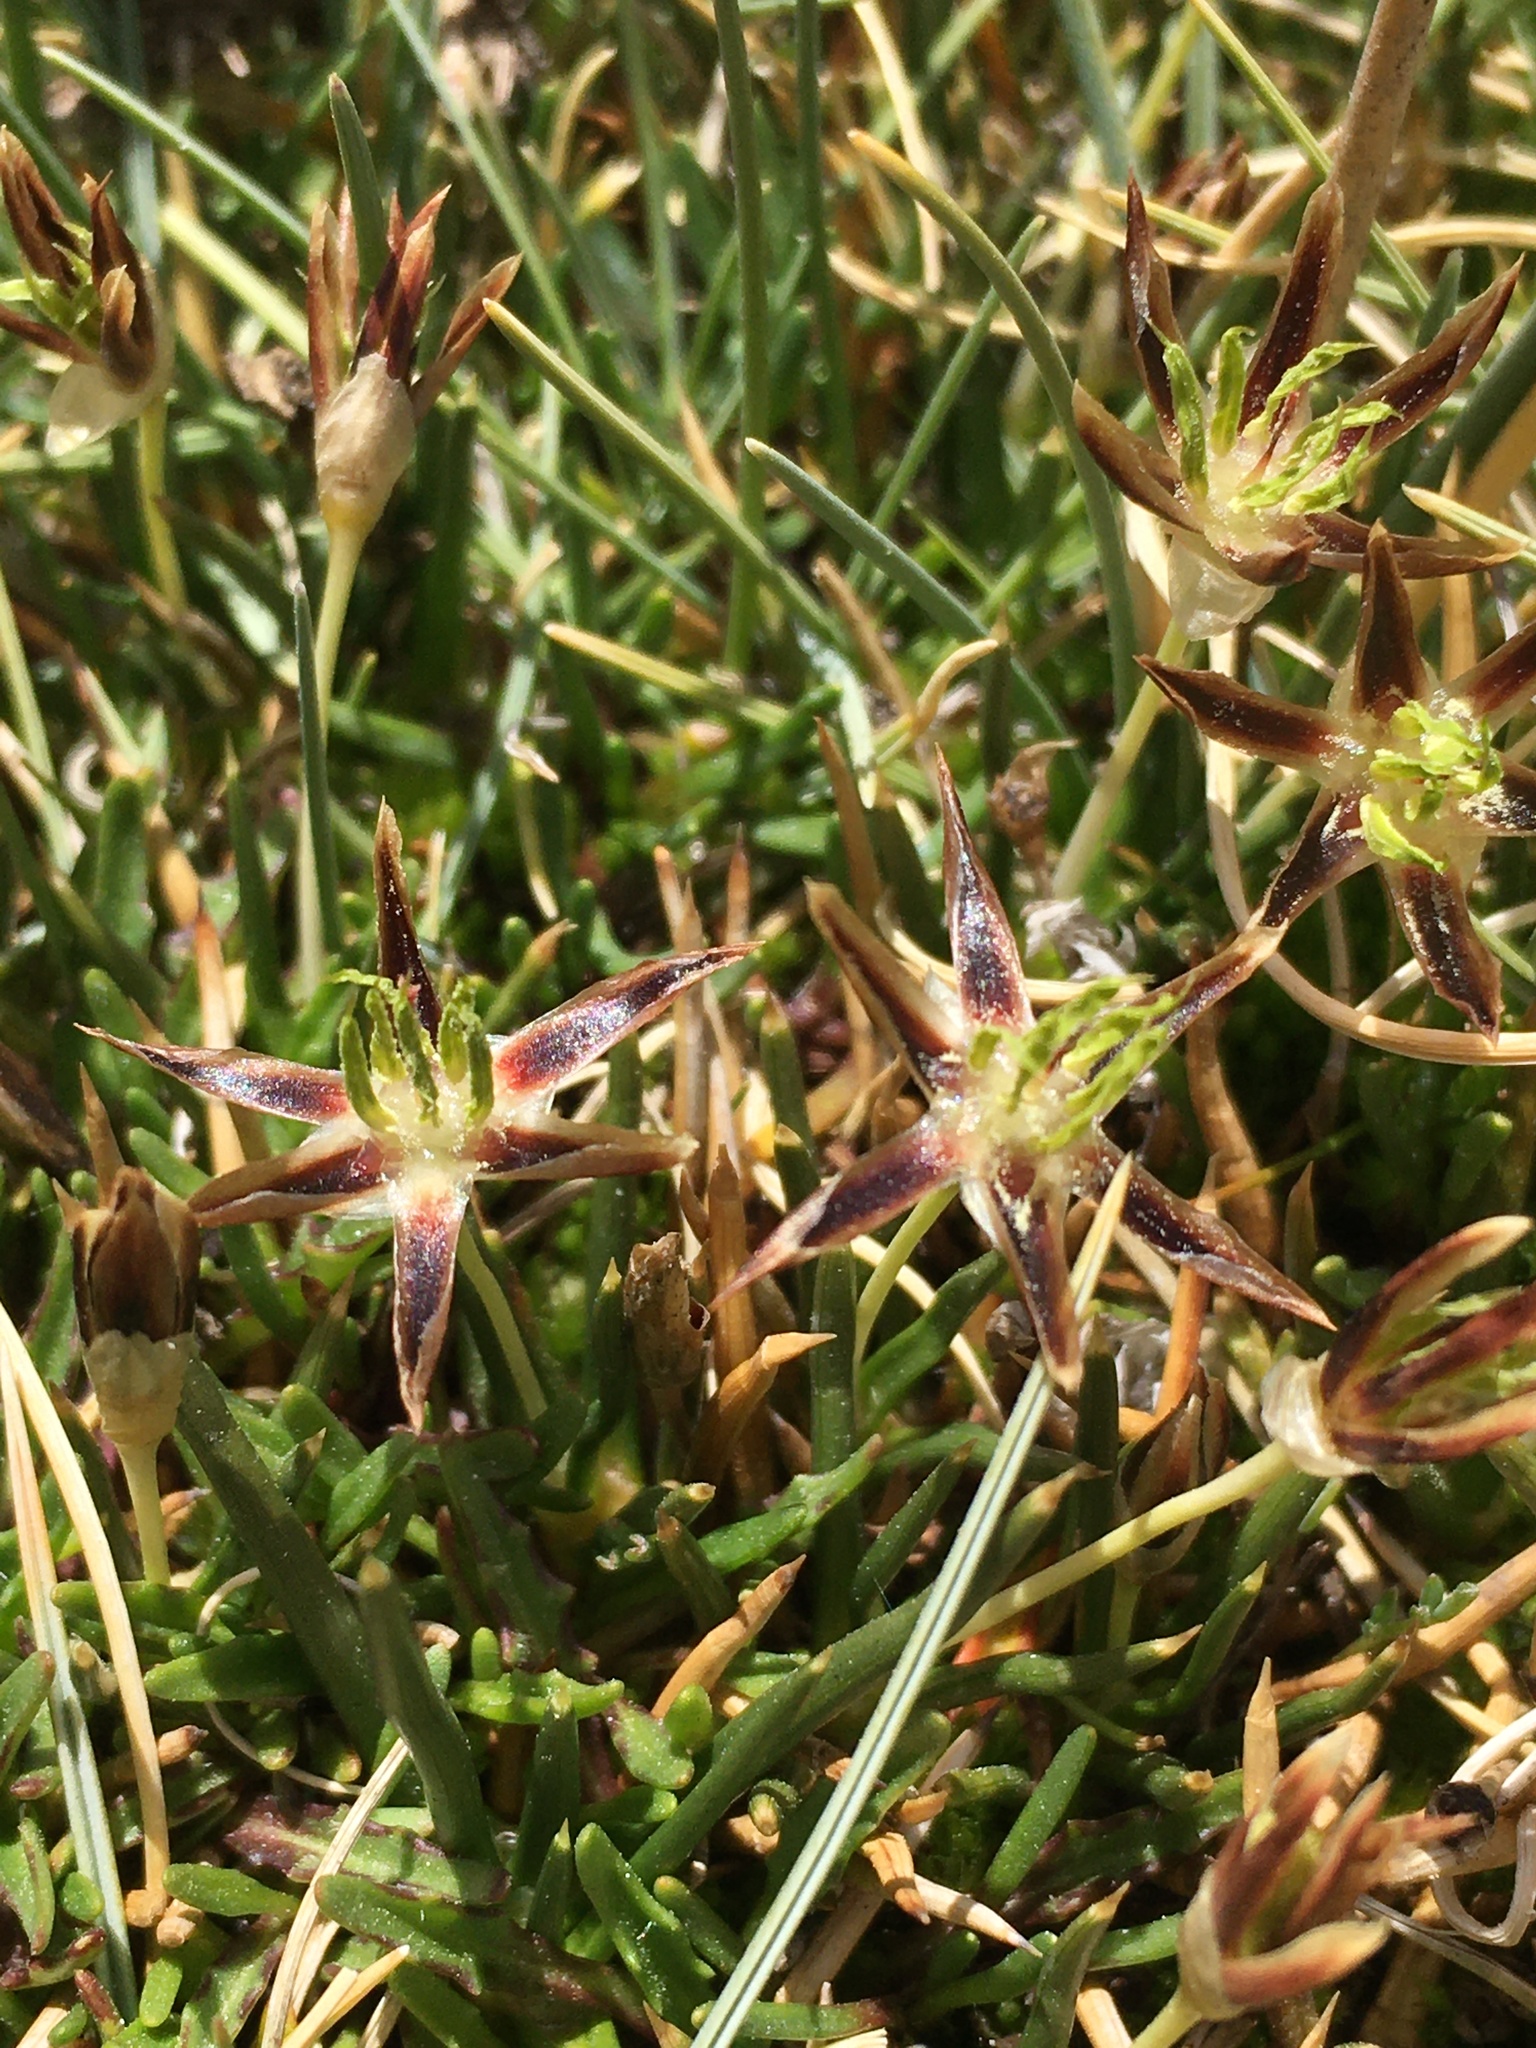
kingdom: Plantae
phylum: Tracheophyta
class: Liliopsida
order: Poales
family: Juncaceae
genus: Patosia
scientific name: Patosia clandestina
